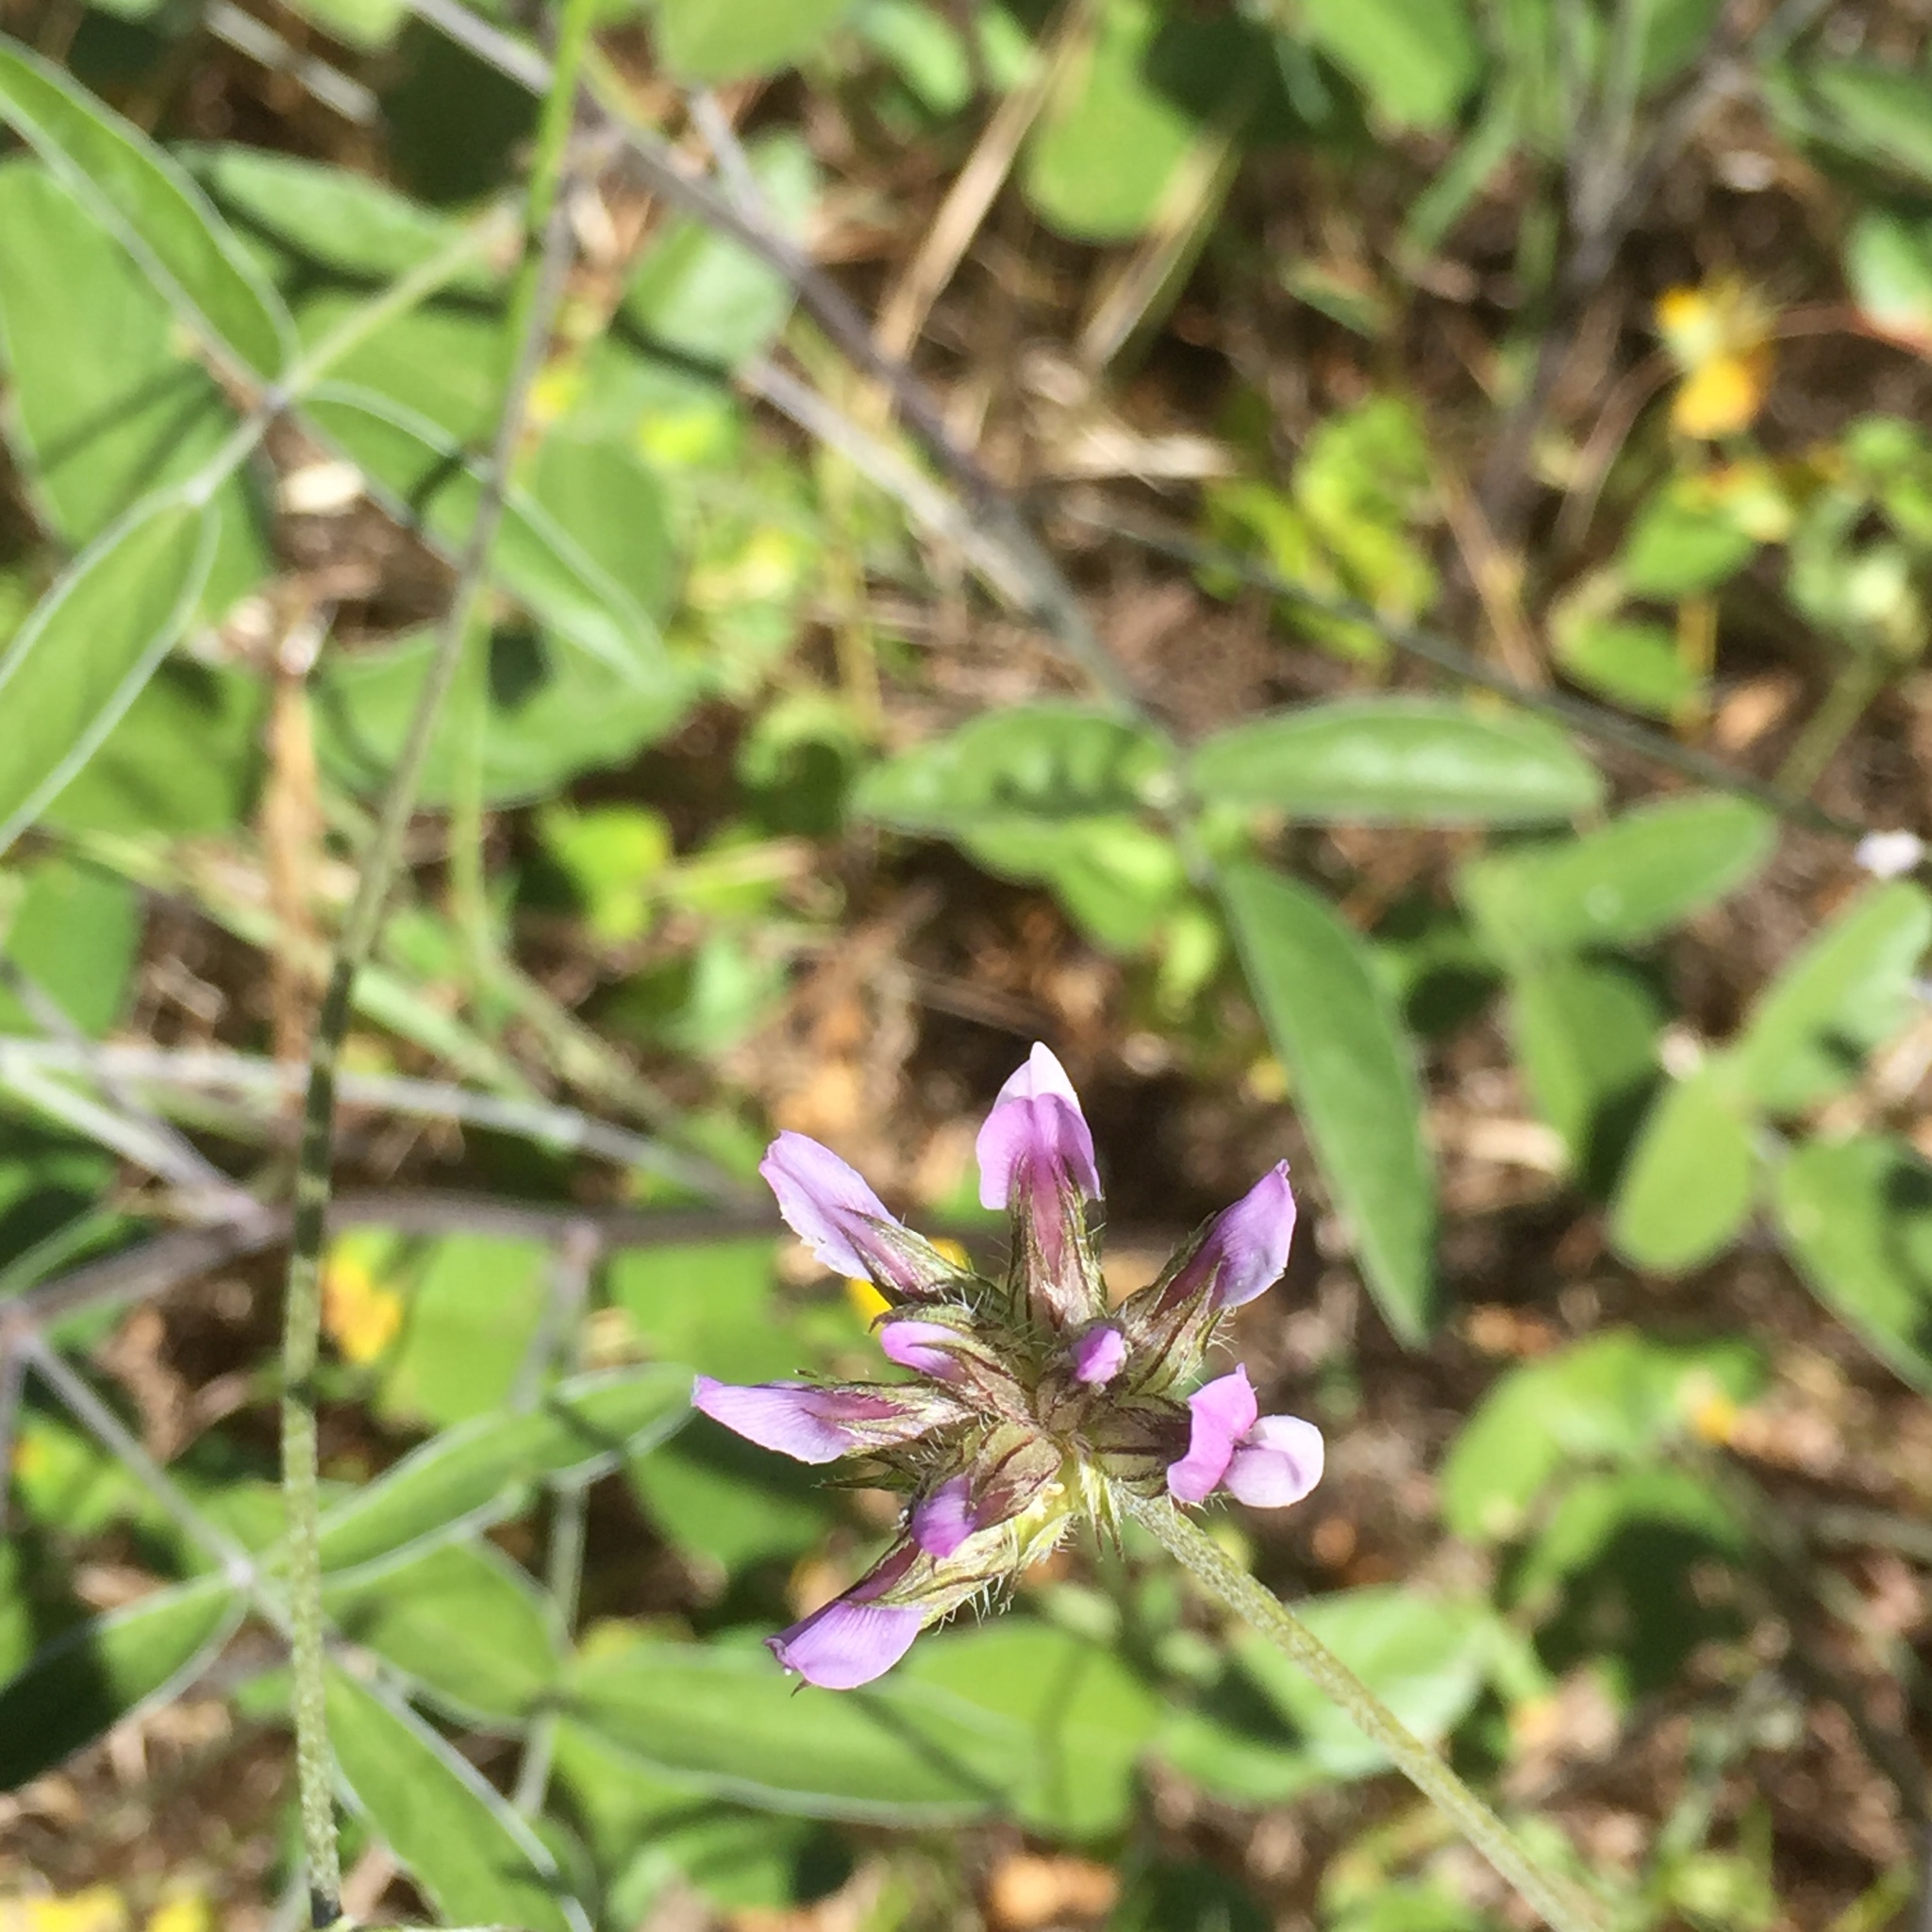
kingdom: Plantae
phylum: Tracheophyta
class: Magnoliopsida
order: Fabales
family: Fabaceae
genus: Bituminaria
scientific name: Bituminaria bituminosa
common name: Arabian pea
